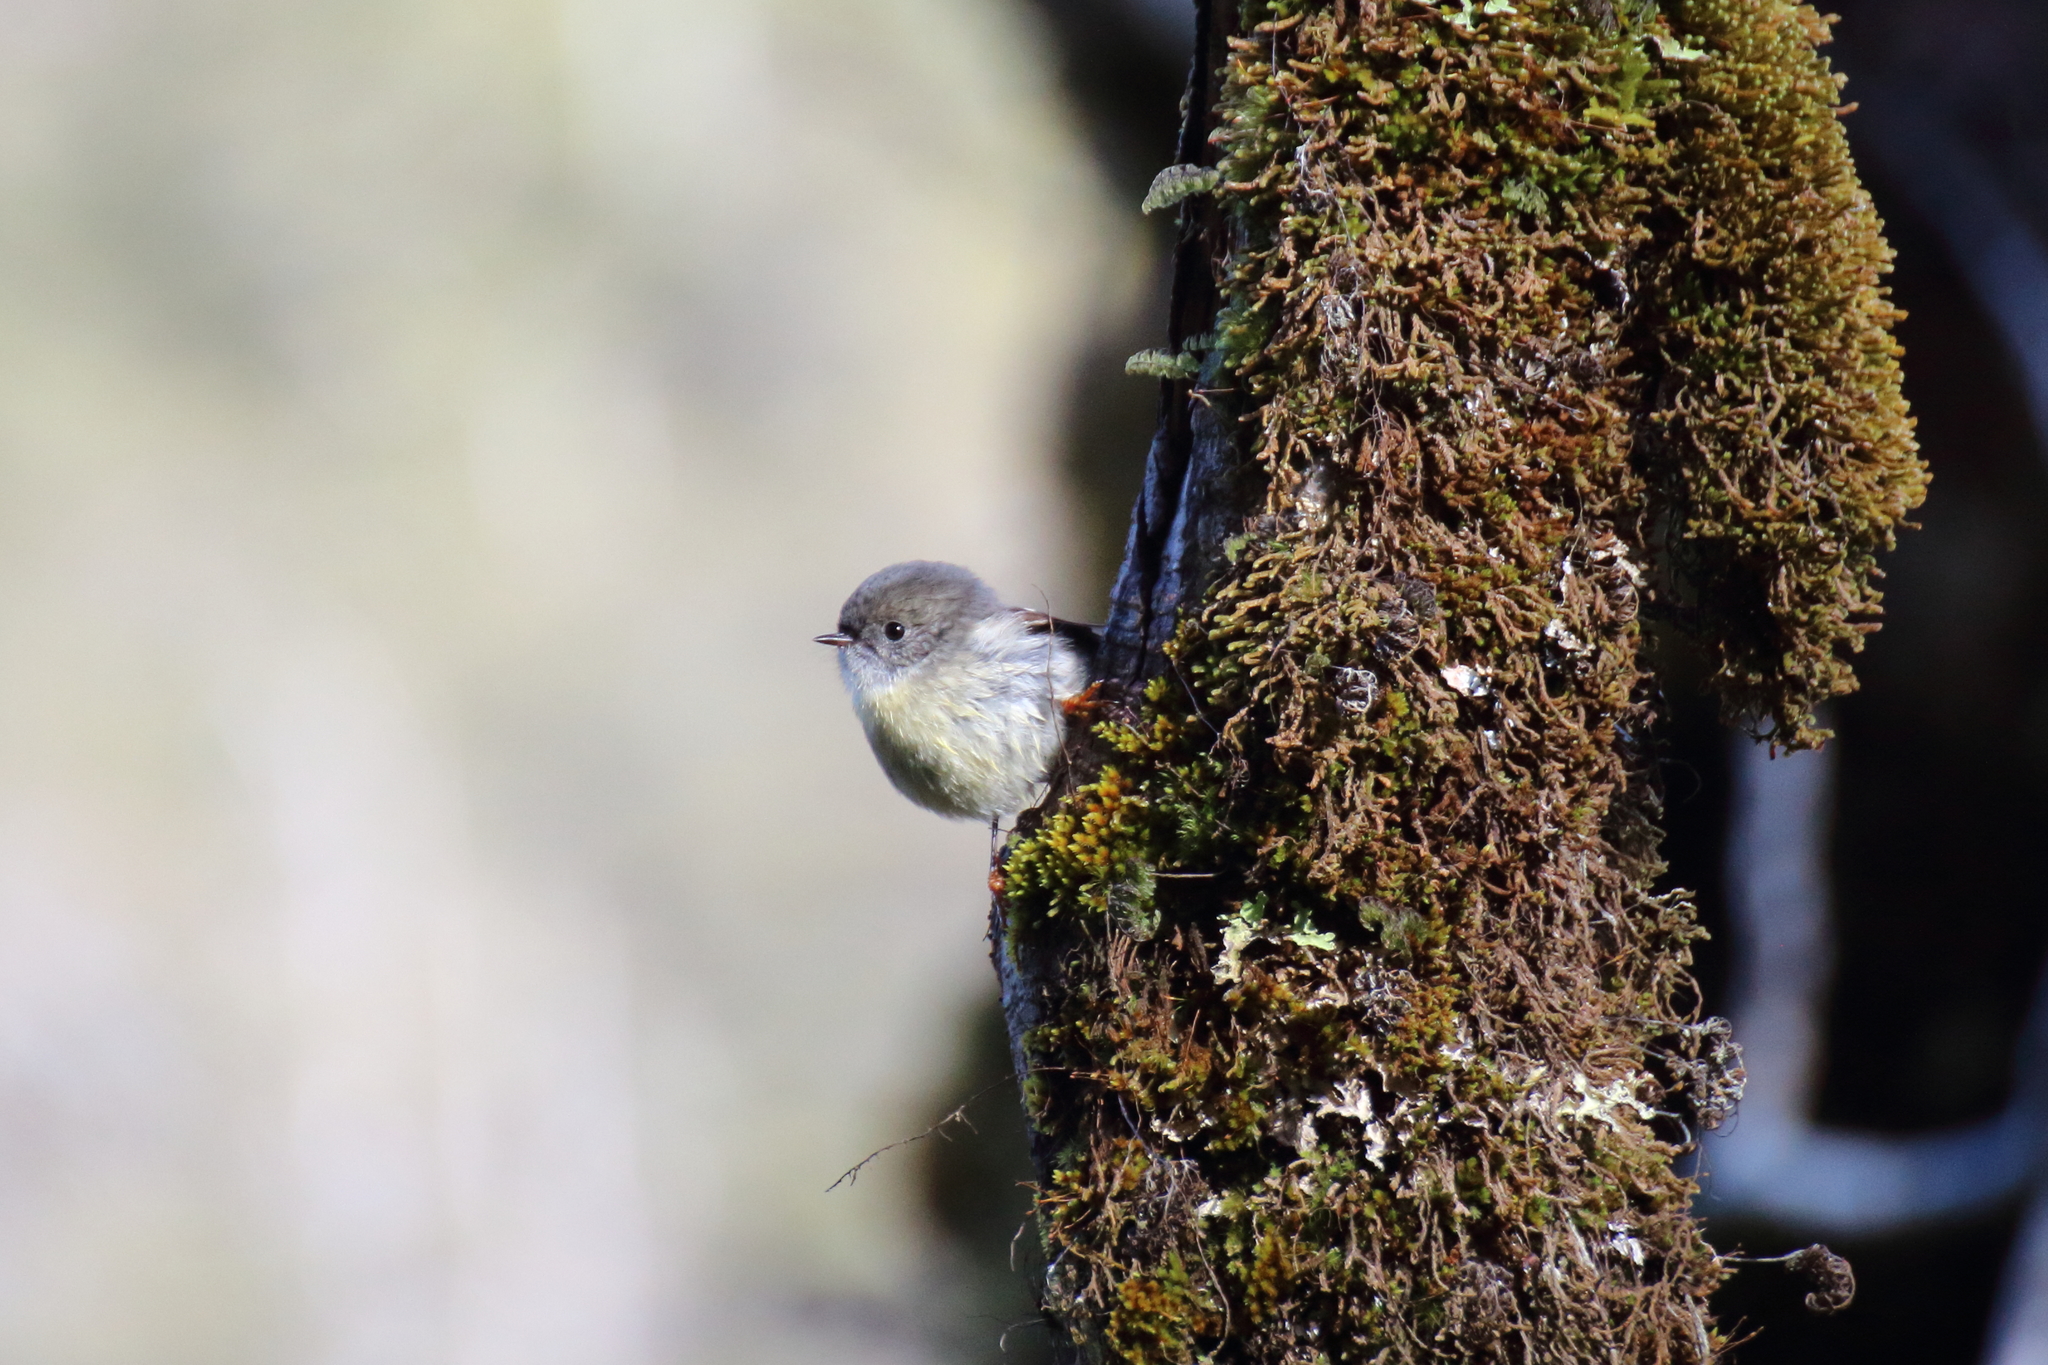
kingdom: Animalia
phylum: Chordata
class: Aves
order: Passeriformes
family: Petroicidae
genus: Petroica
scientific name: Petroica macrocephala
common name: Tomtit
